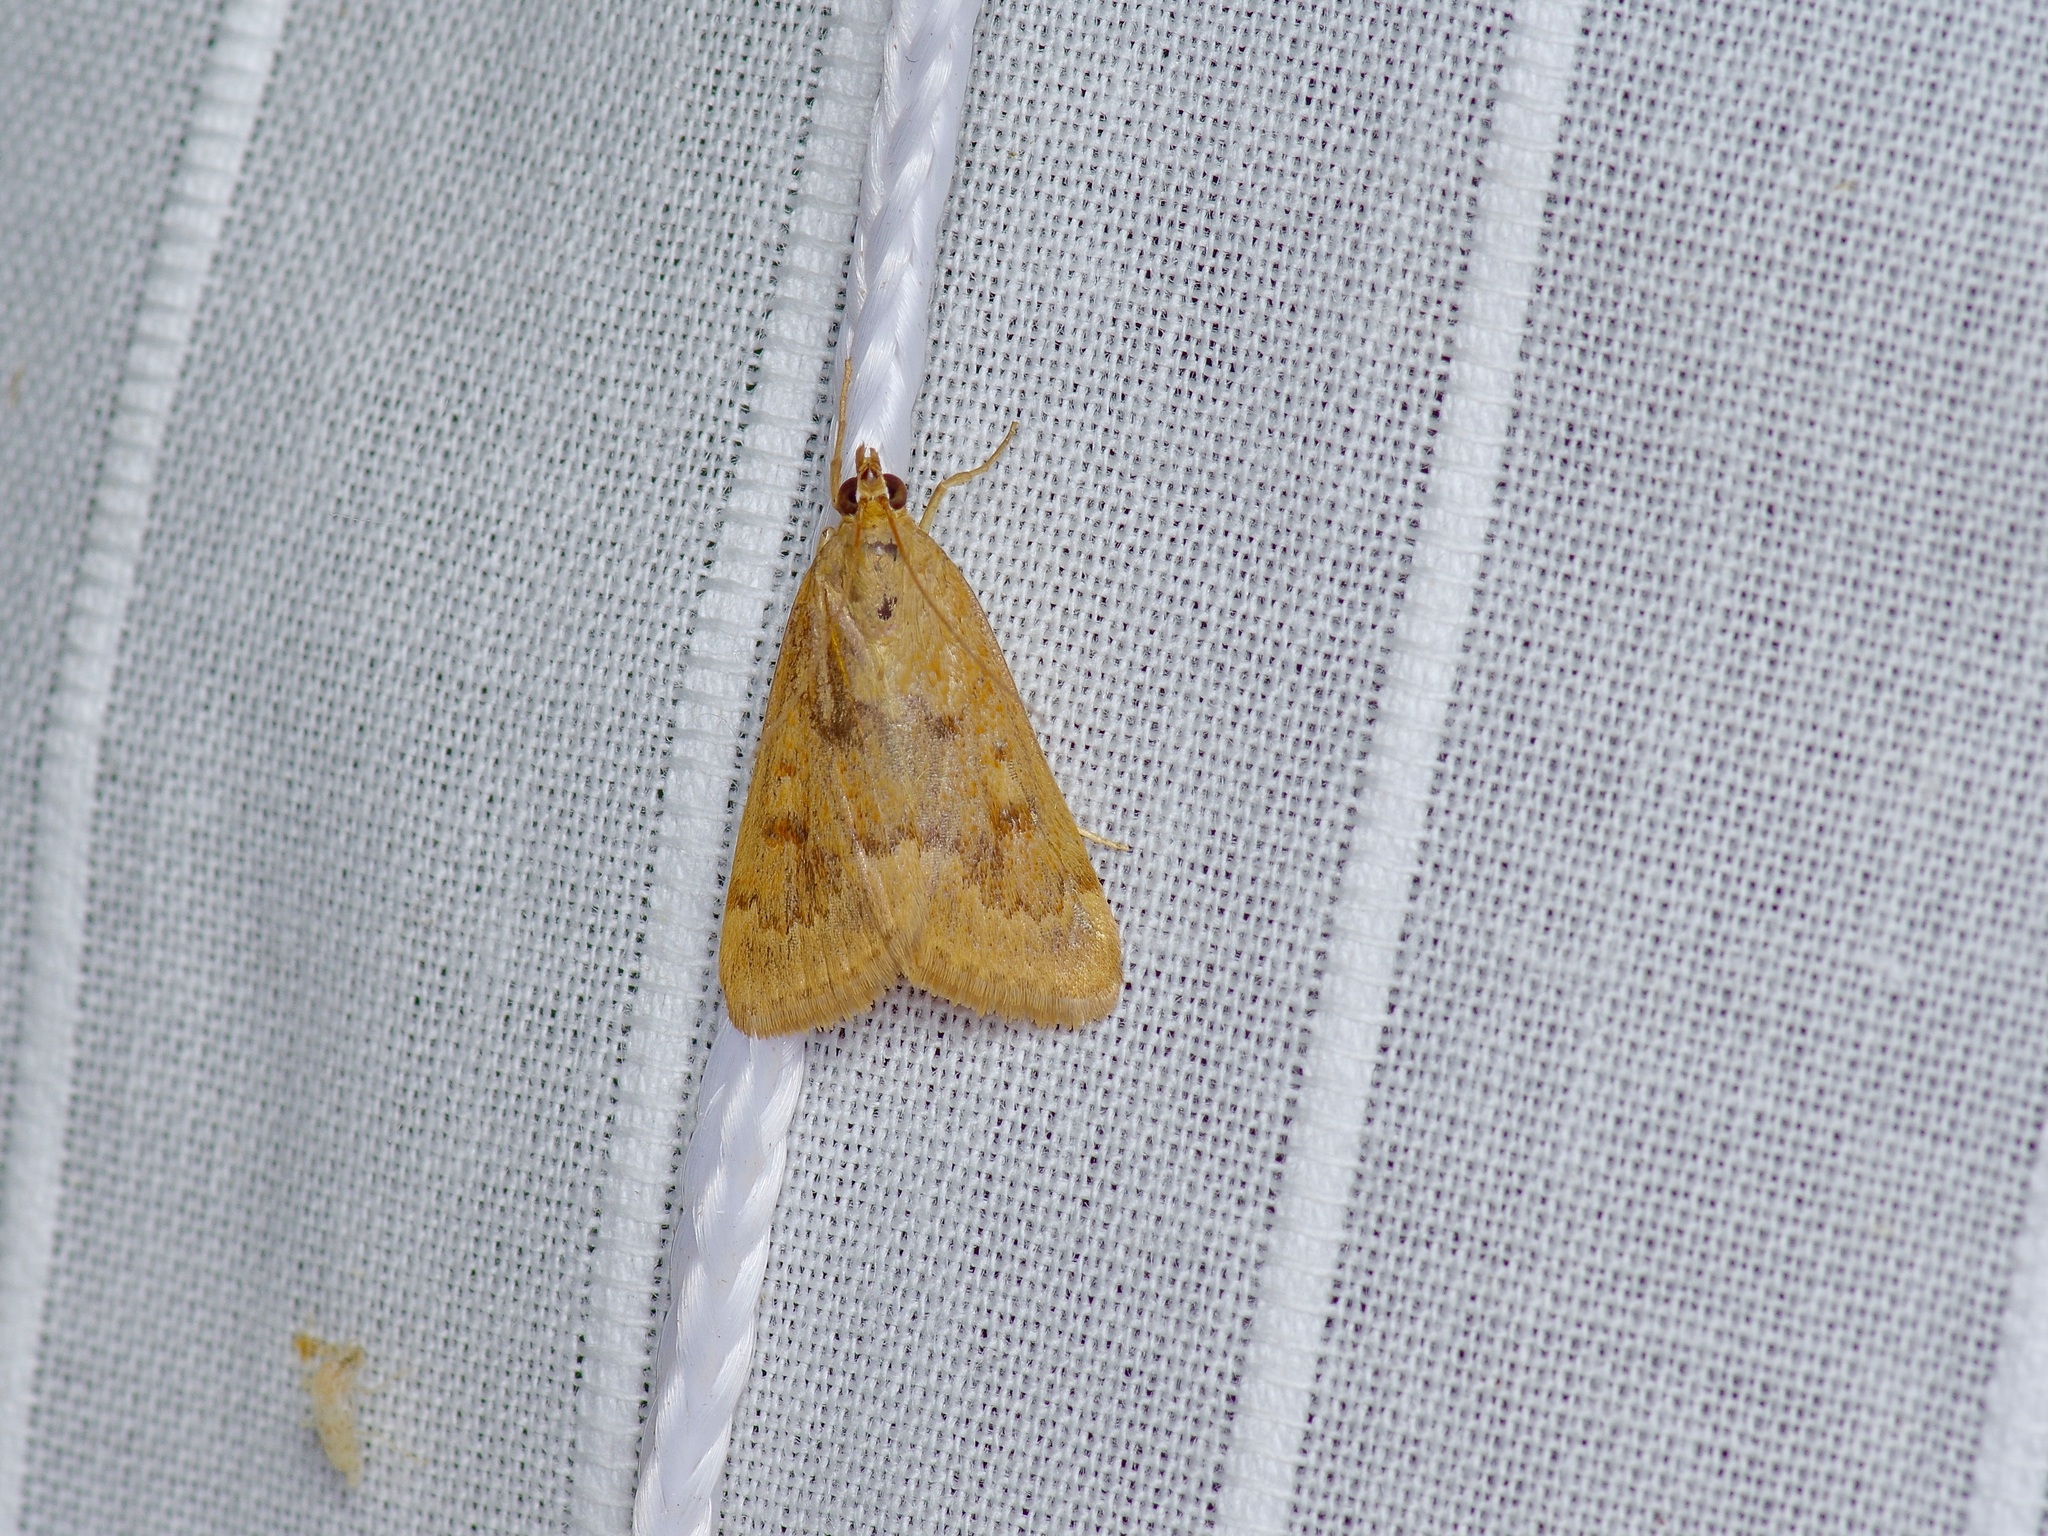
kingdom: Animalia
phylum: Arthropoda
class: Insecta
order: Lepidoptera
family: Crambidae
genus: Achyra
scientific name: Achyra rantalis
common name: Garden webworm
